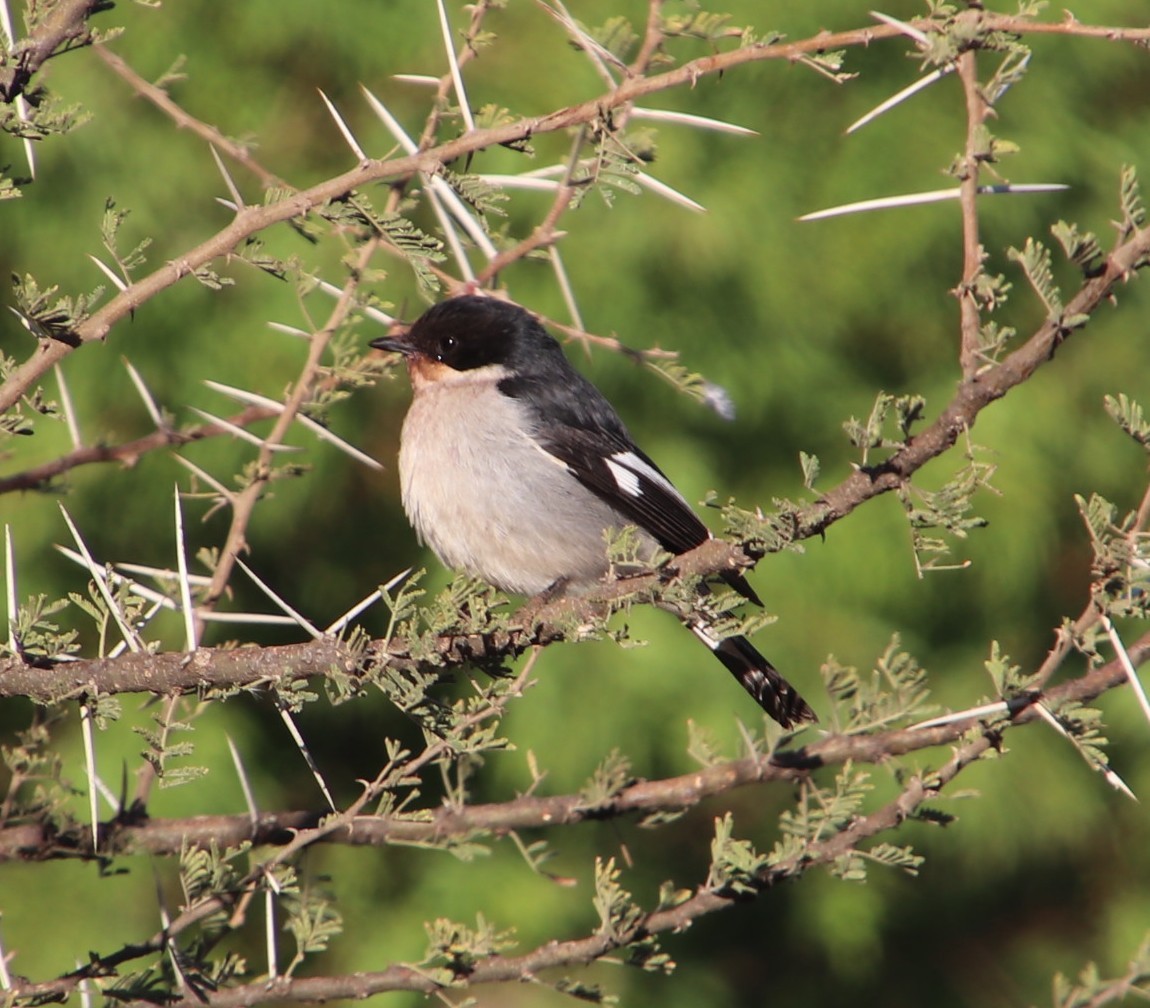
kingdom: Animalia
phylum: Chordata
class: Aves
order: Passeriformes
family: Muscicapidae
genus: Sigelus
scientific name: Sigelus silens
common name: Fiscal flycatcher
